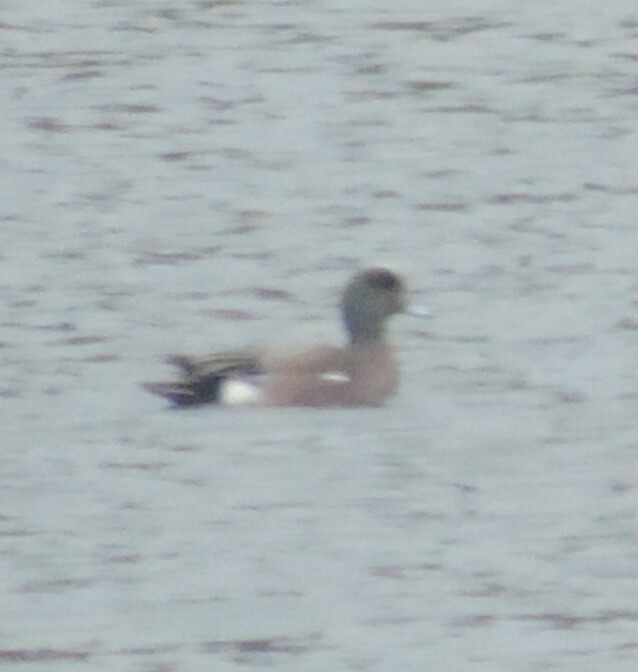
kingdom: Animalia
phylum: Chordata
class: Aves
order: Anseriformes
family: Anatidae
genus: Mareca
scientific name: Mareca americana
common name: American wigeon
